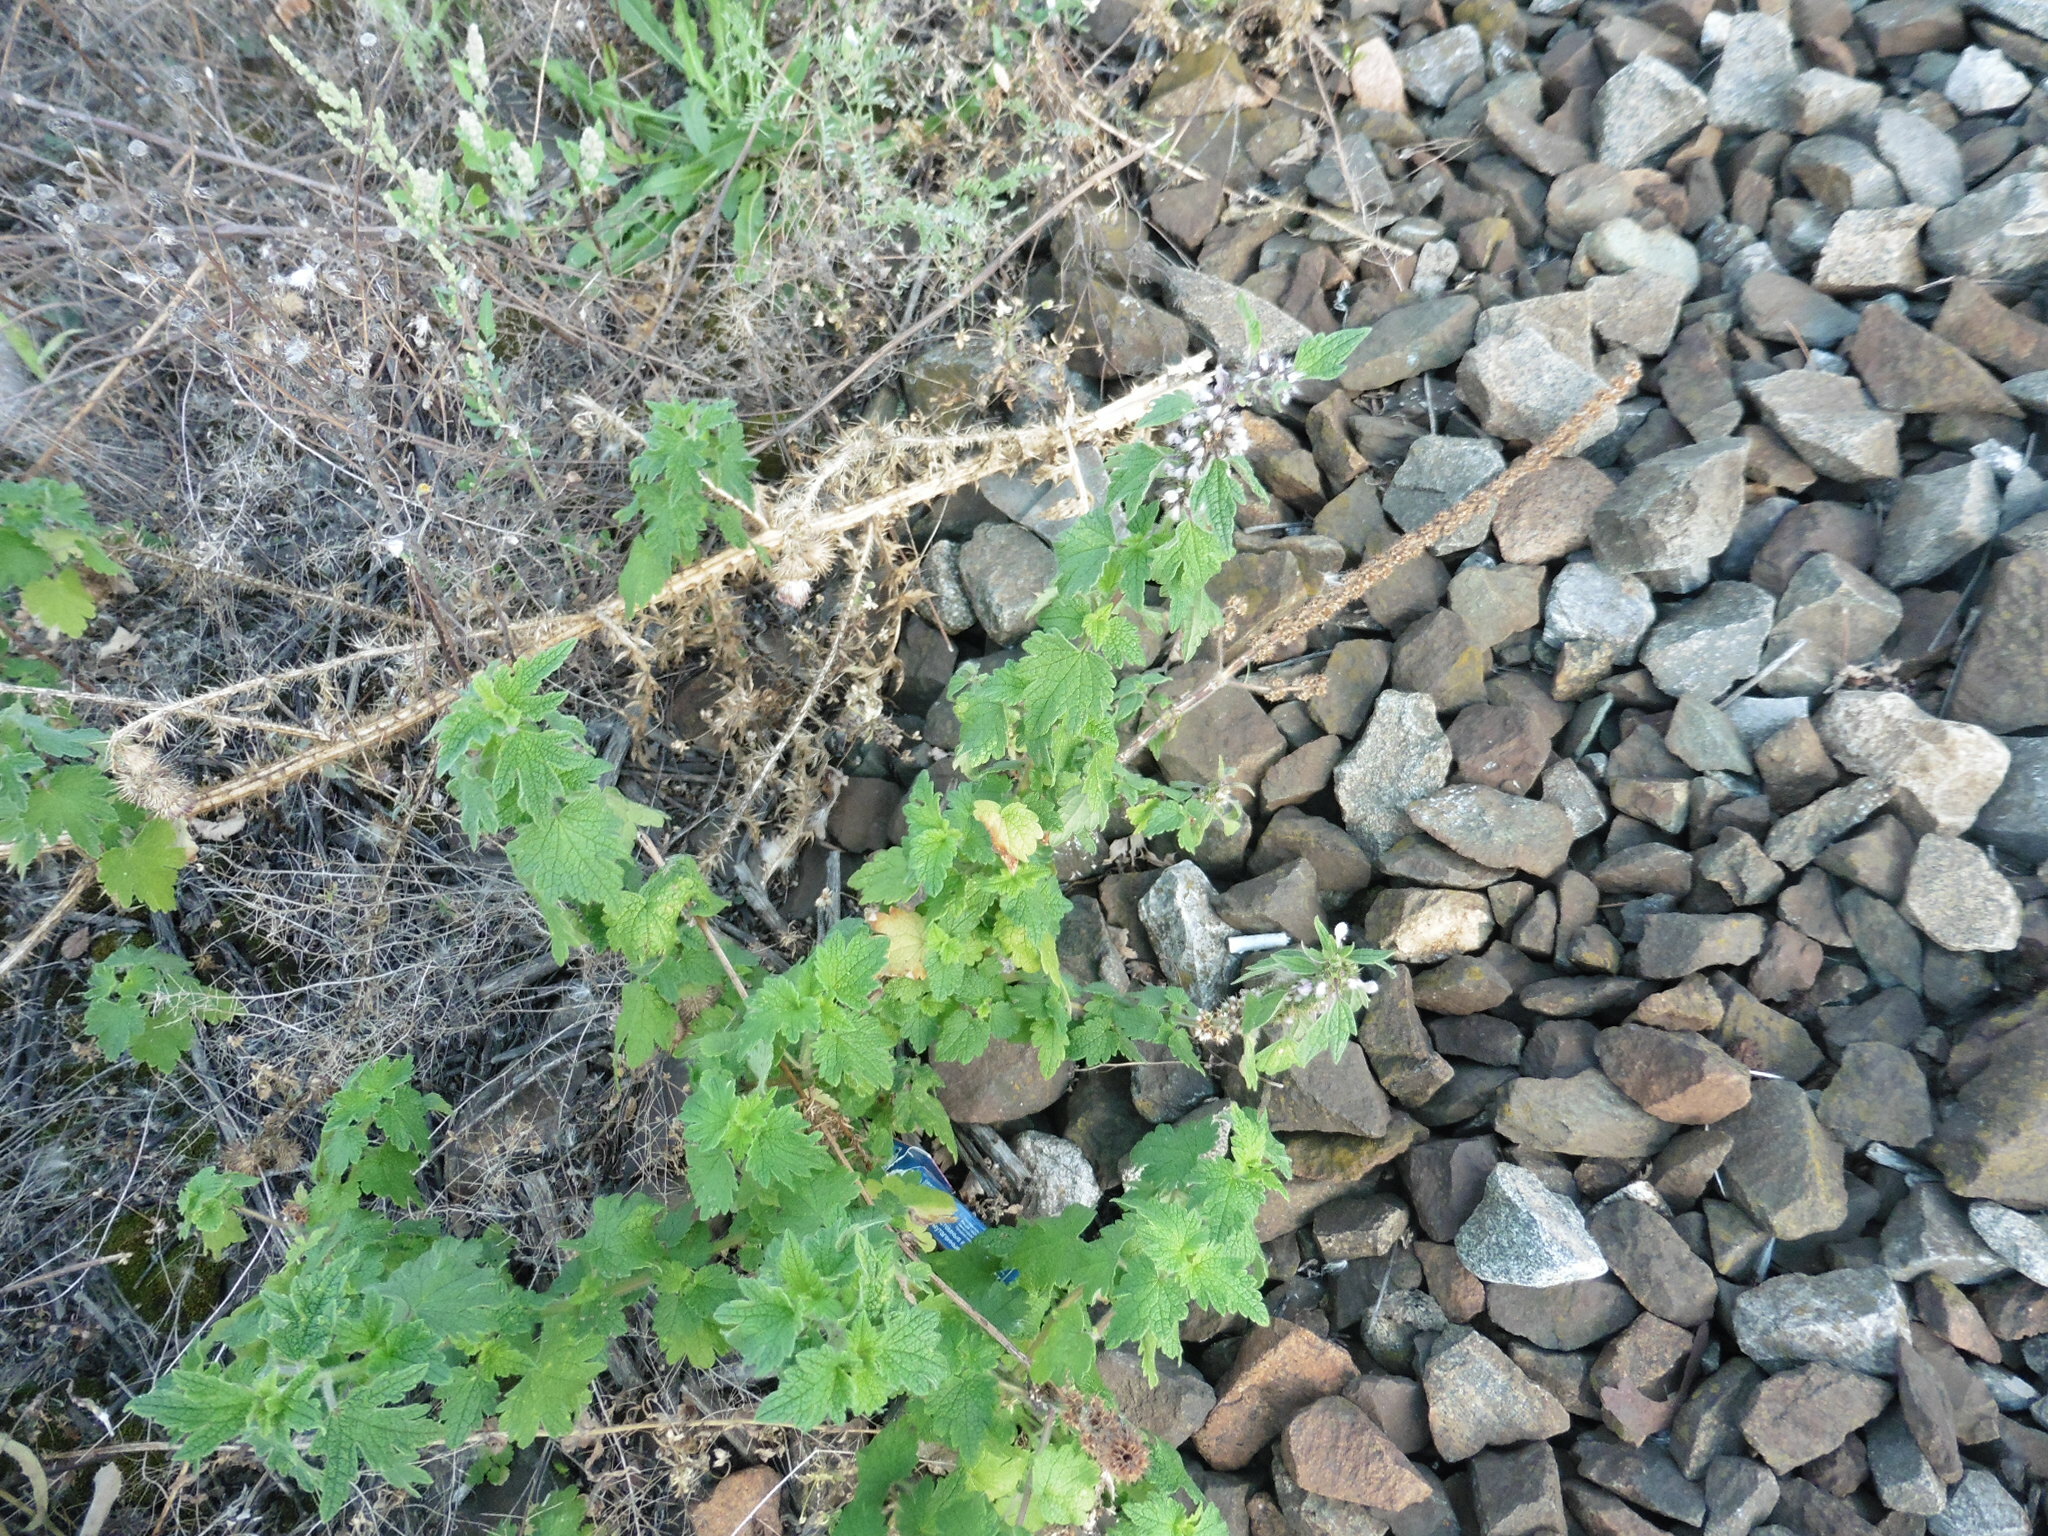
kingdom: Plantae
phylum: Tracheophyta
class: Magnoliopsida
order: Lamiales
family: Lamiaceae
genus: Leonurus
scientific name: Leonurus quinquelobatus
